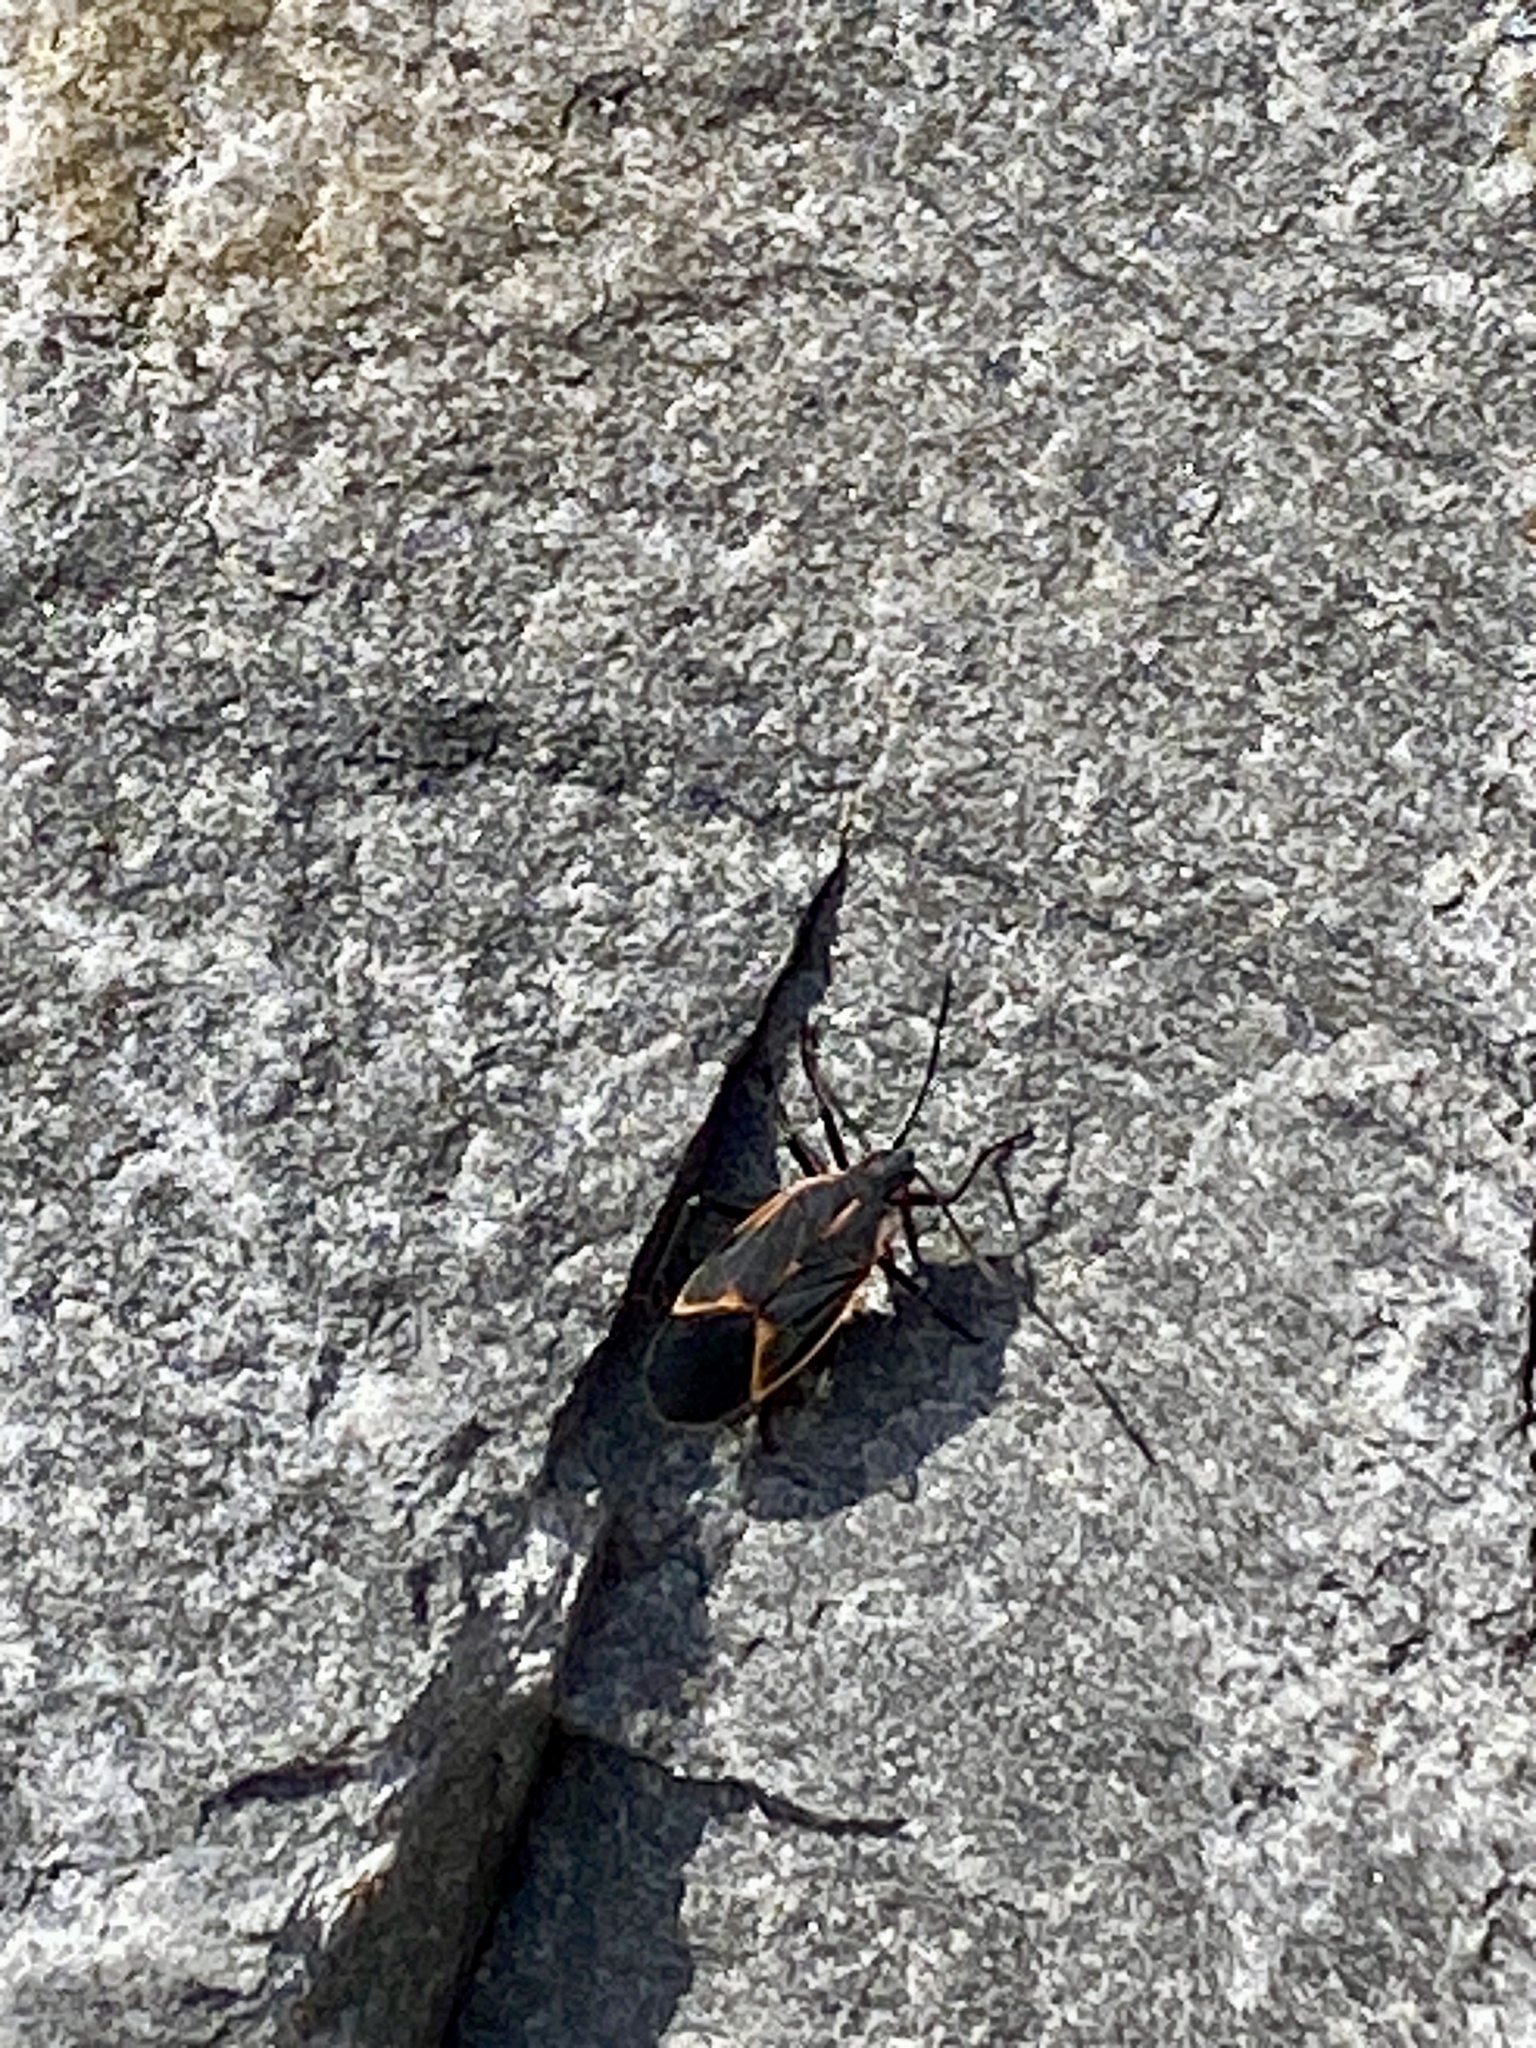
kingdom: Animalia
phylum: Arthropoda
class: Insecta
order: Hemiptera
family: Rhopalidae
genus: Boisea
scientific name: Boisea trivittata
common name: Boxelder bug
